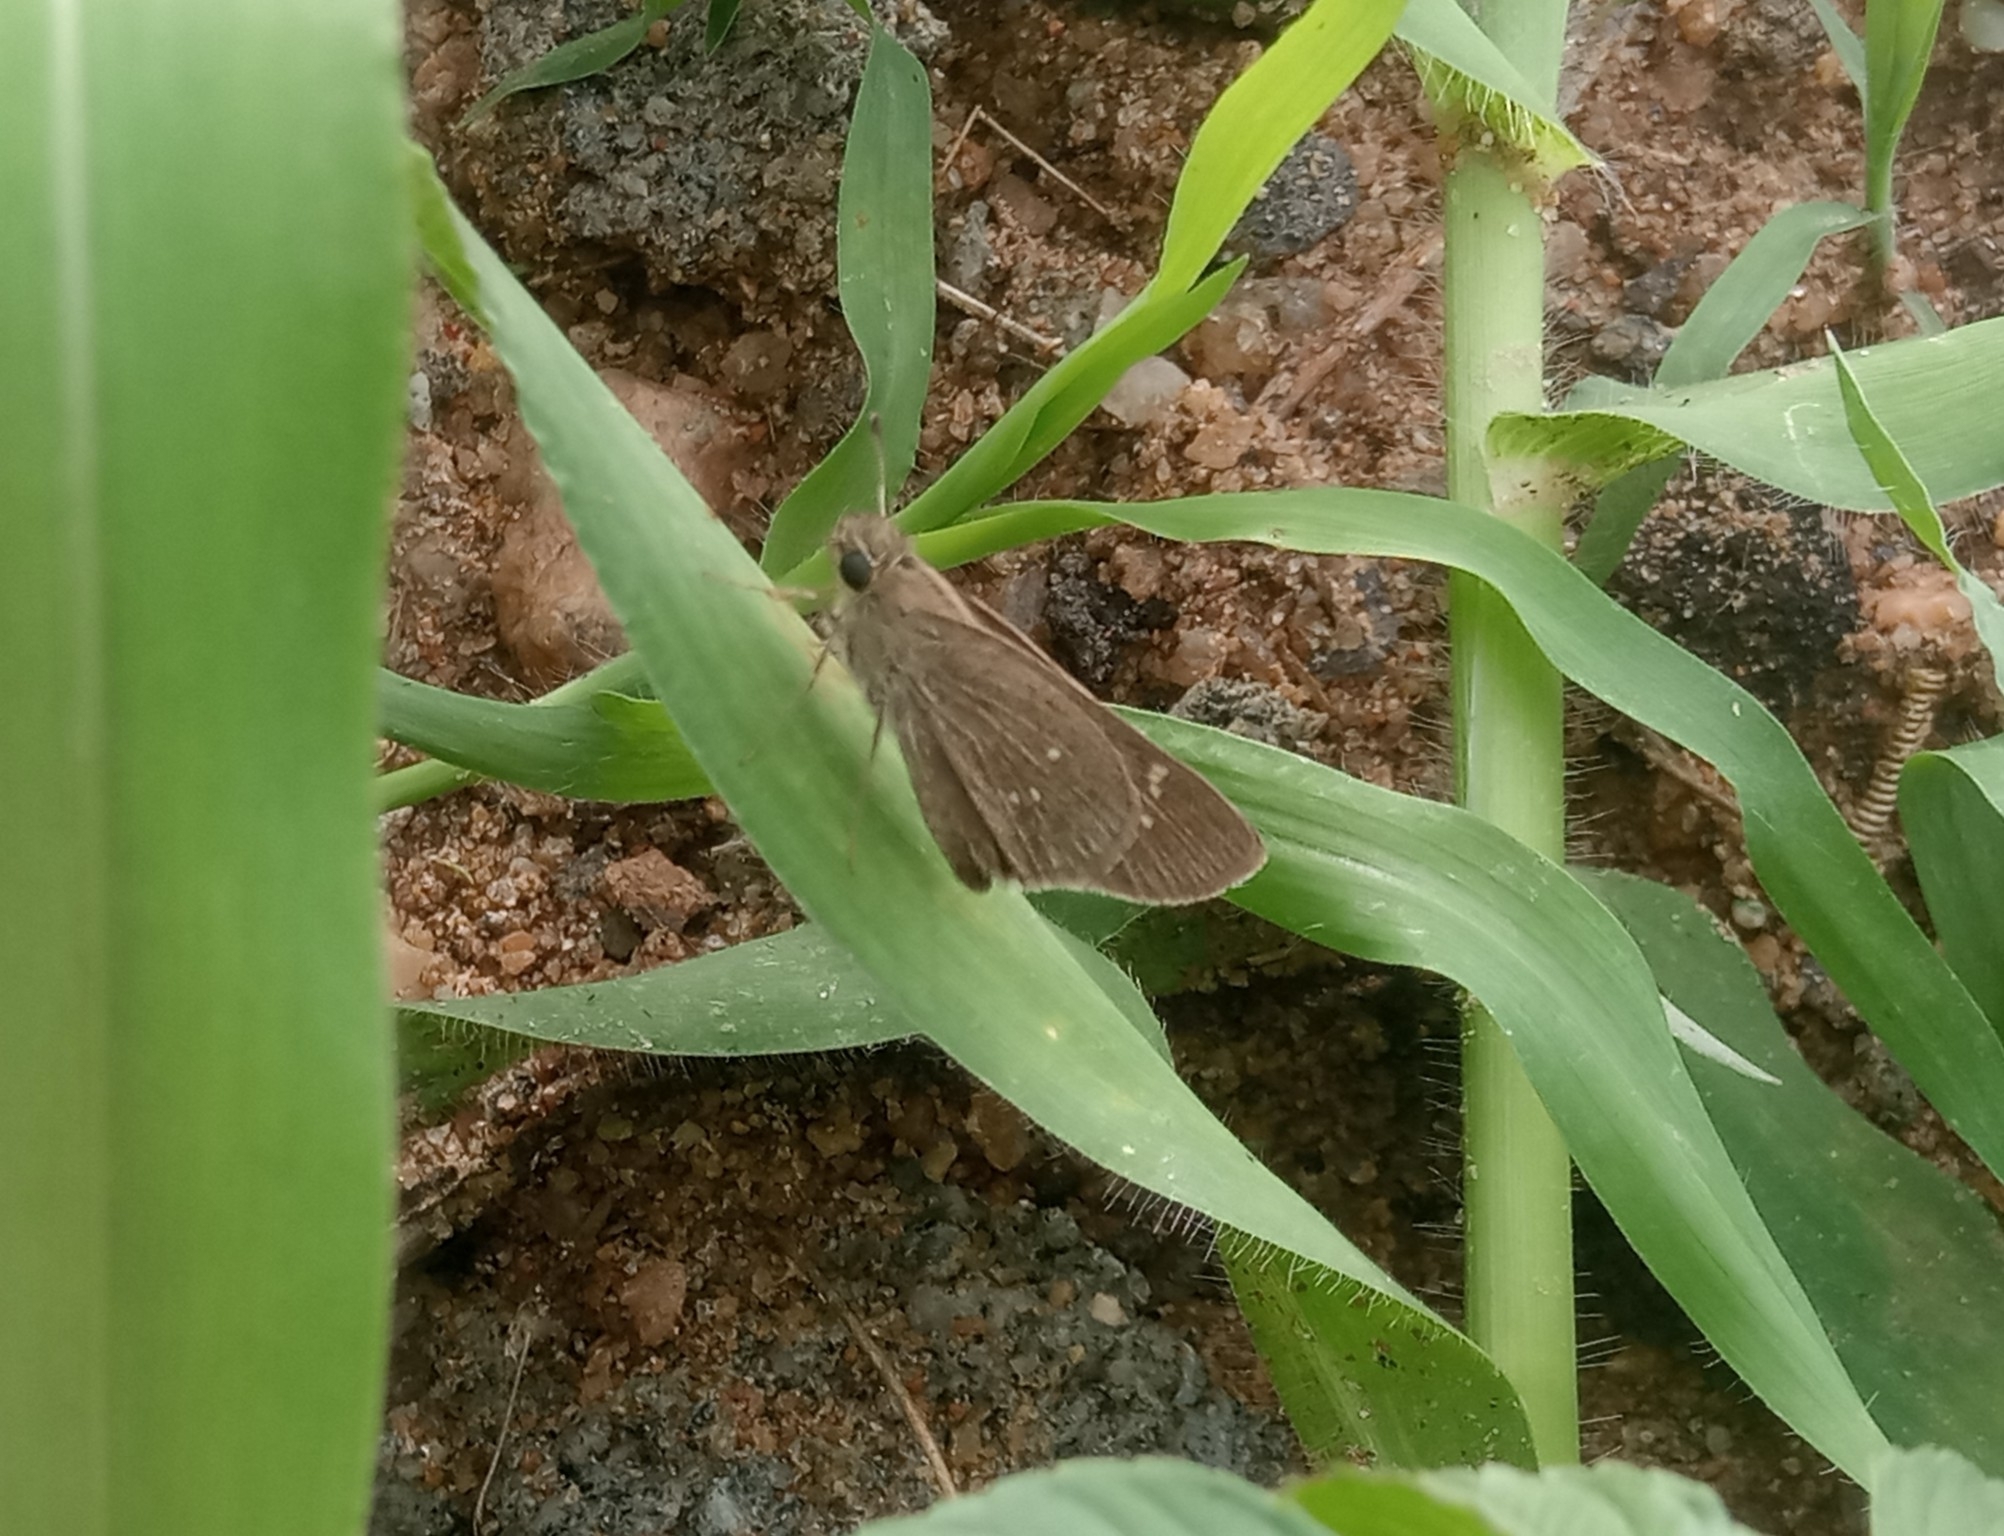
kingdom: Animalia
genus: Torbenlarsenia
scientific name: Torbenlarsenia
